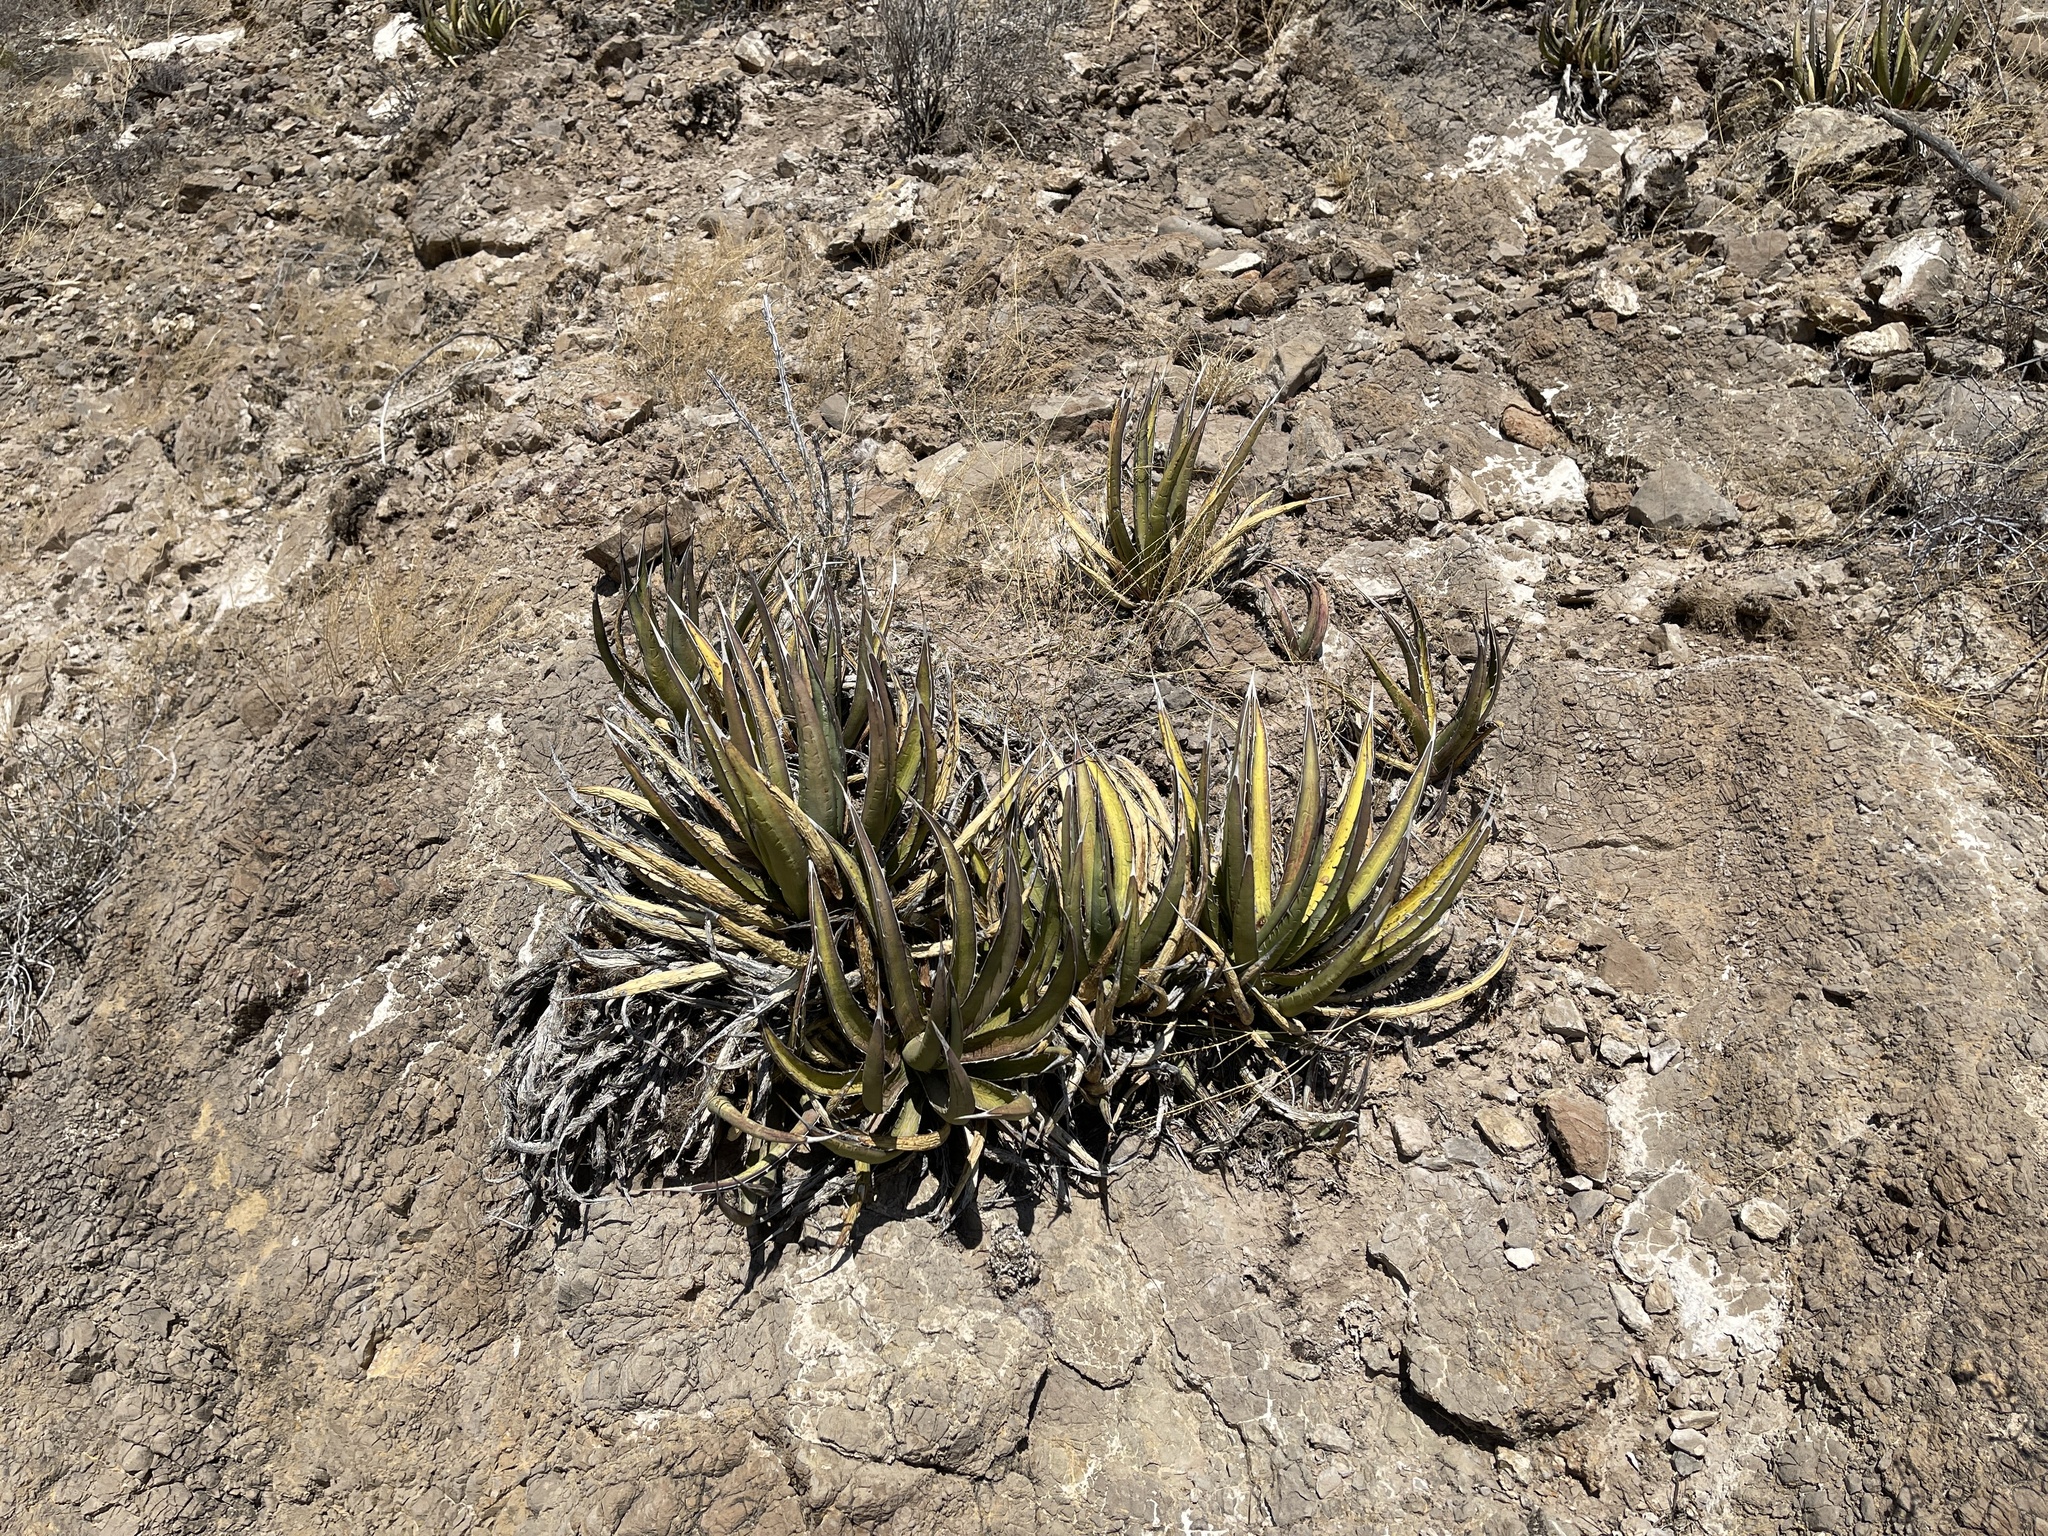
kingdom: Plantae
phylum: Tracheophyta
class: Liliopsida
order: Asparagales
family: Asparagaceae
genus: Agave
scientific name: Agave lechuguilla
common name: Lecheguilla agave
